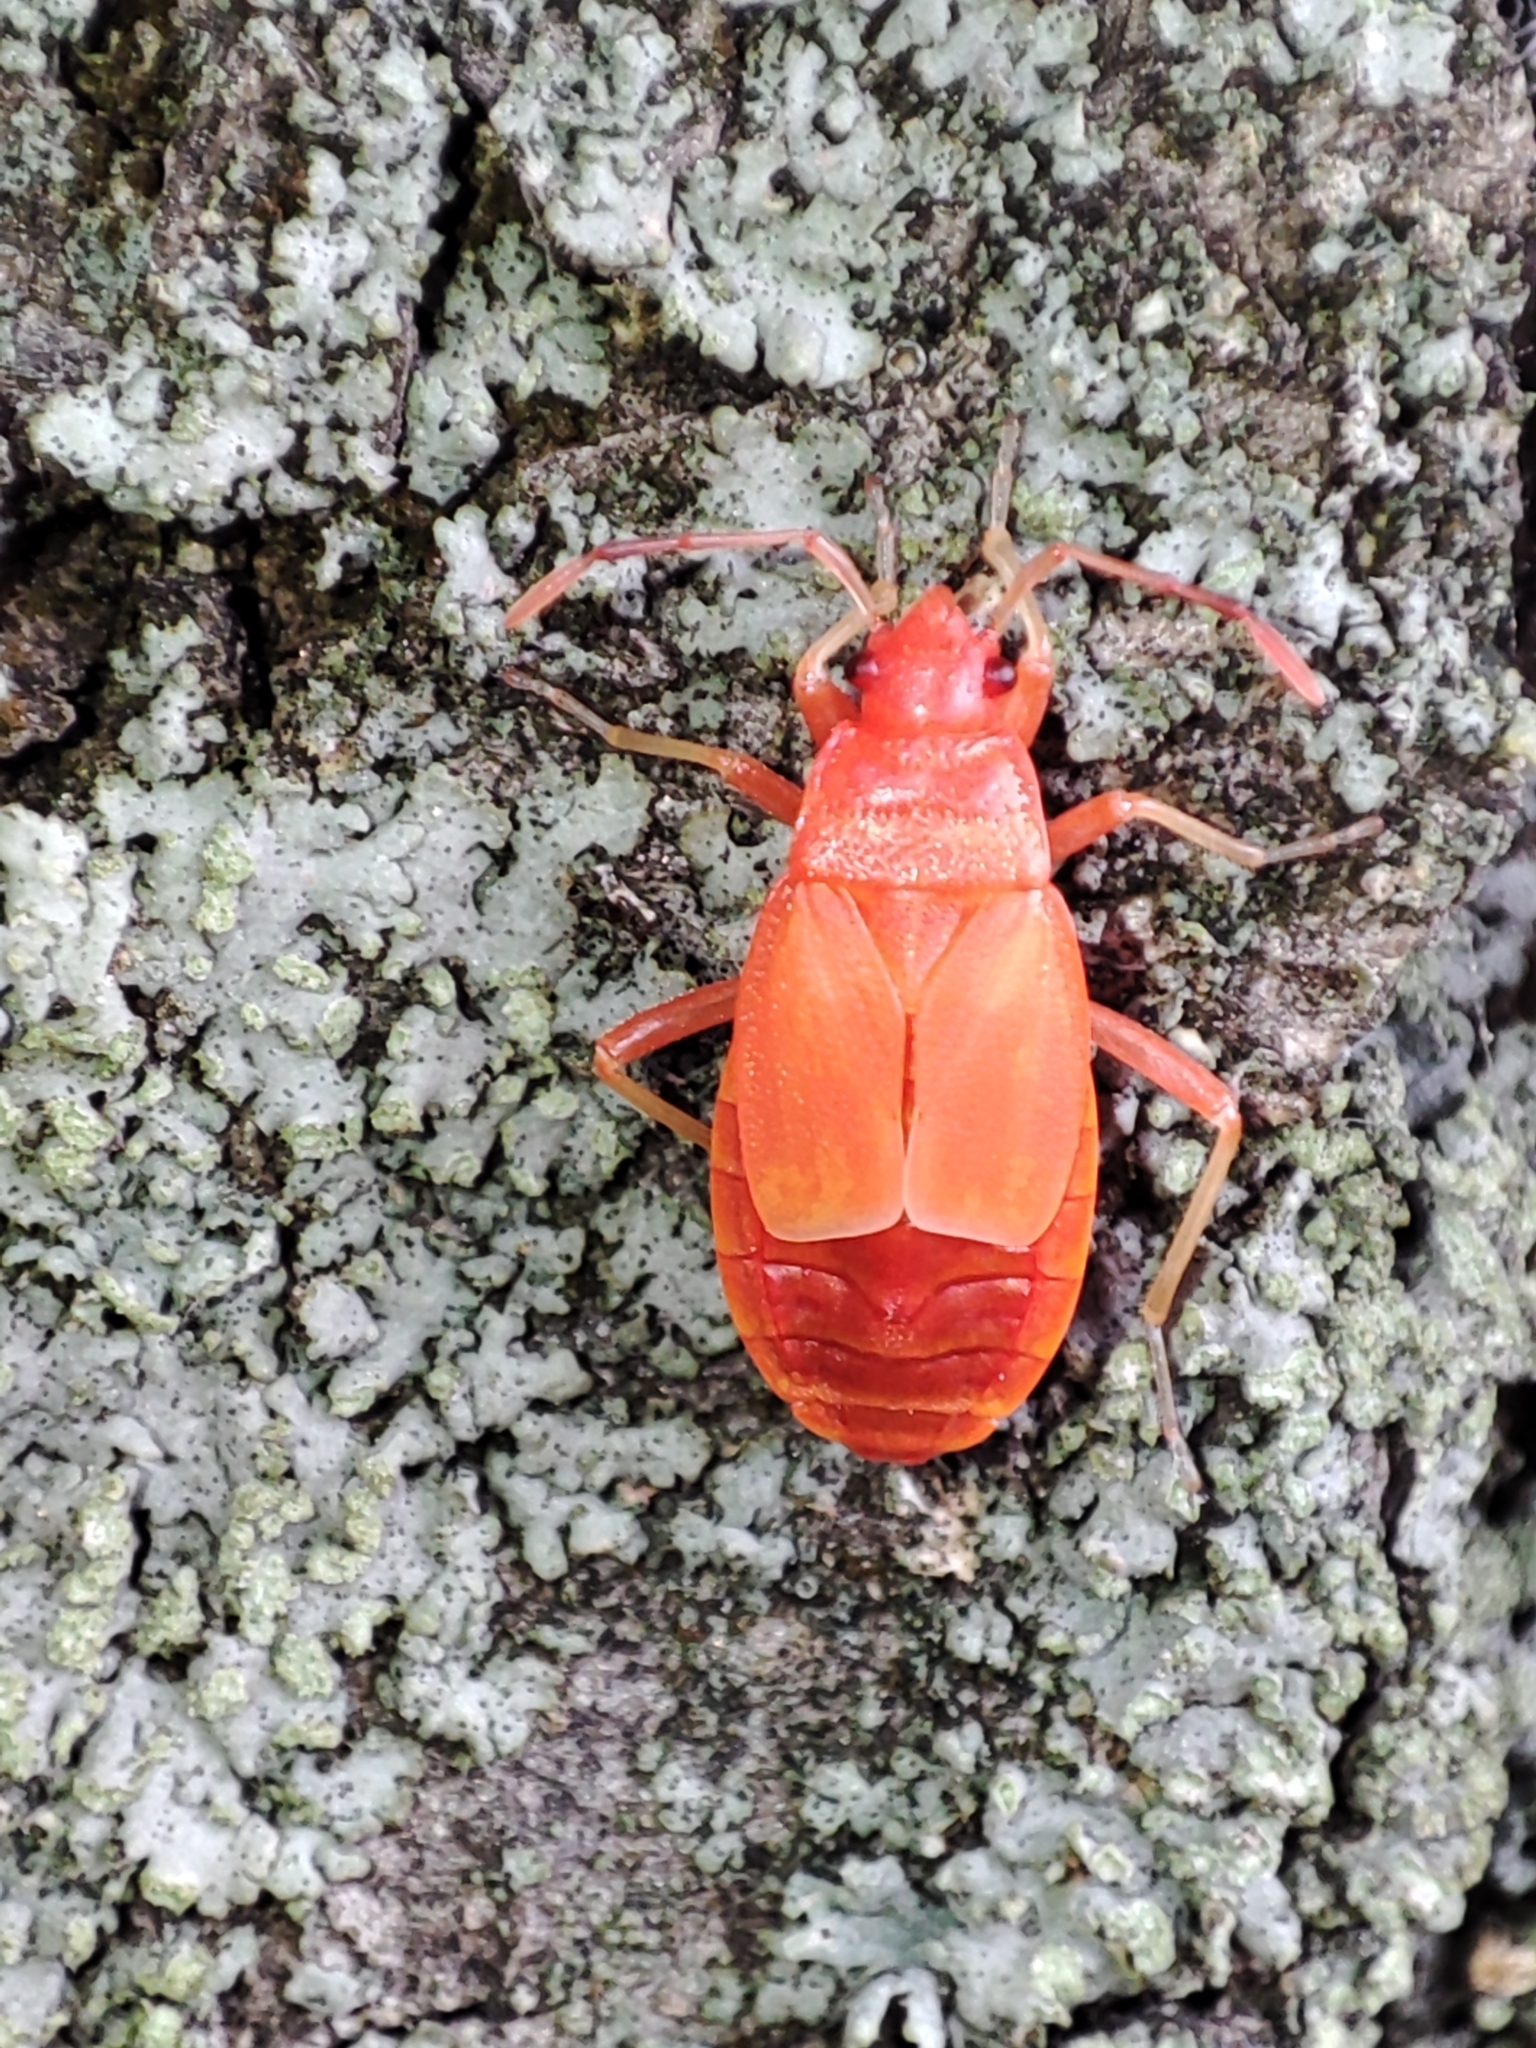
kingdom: Animalia
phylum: Arthropoda
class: Insecta
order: Hemiptera
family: Pyrrhocoridae
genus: Pyrrhocoris
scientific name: Pyrrhocoris apterus
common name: Firebug
